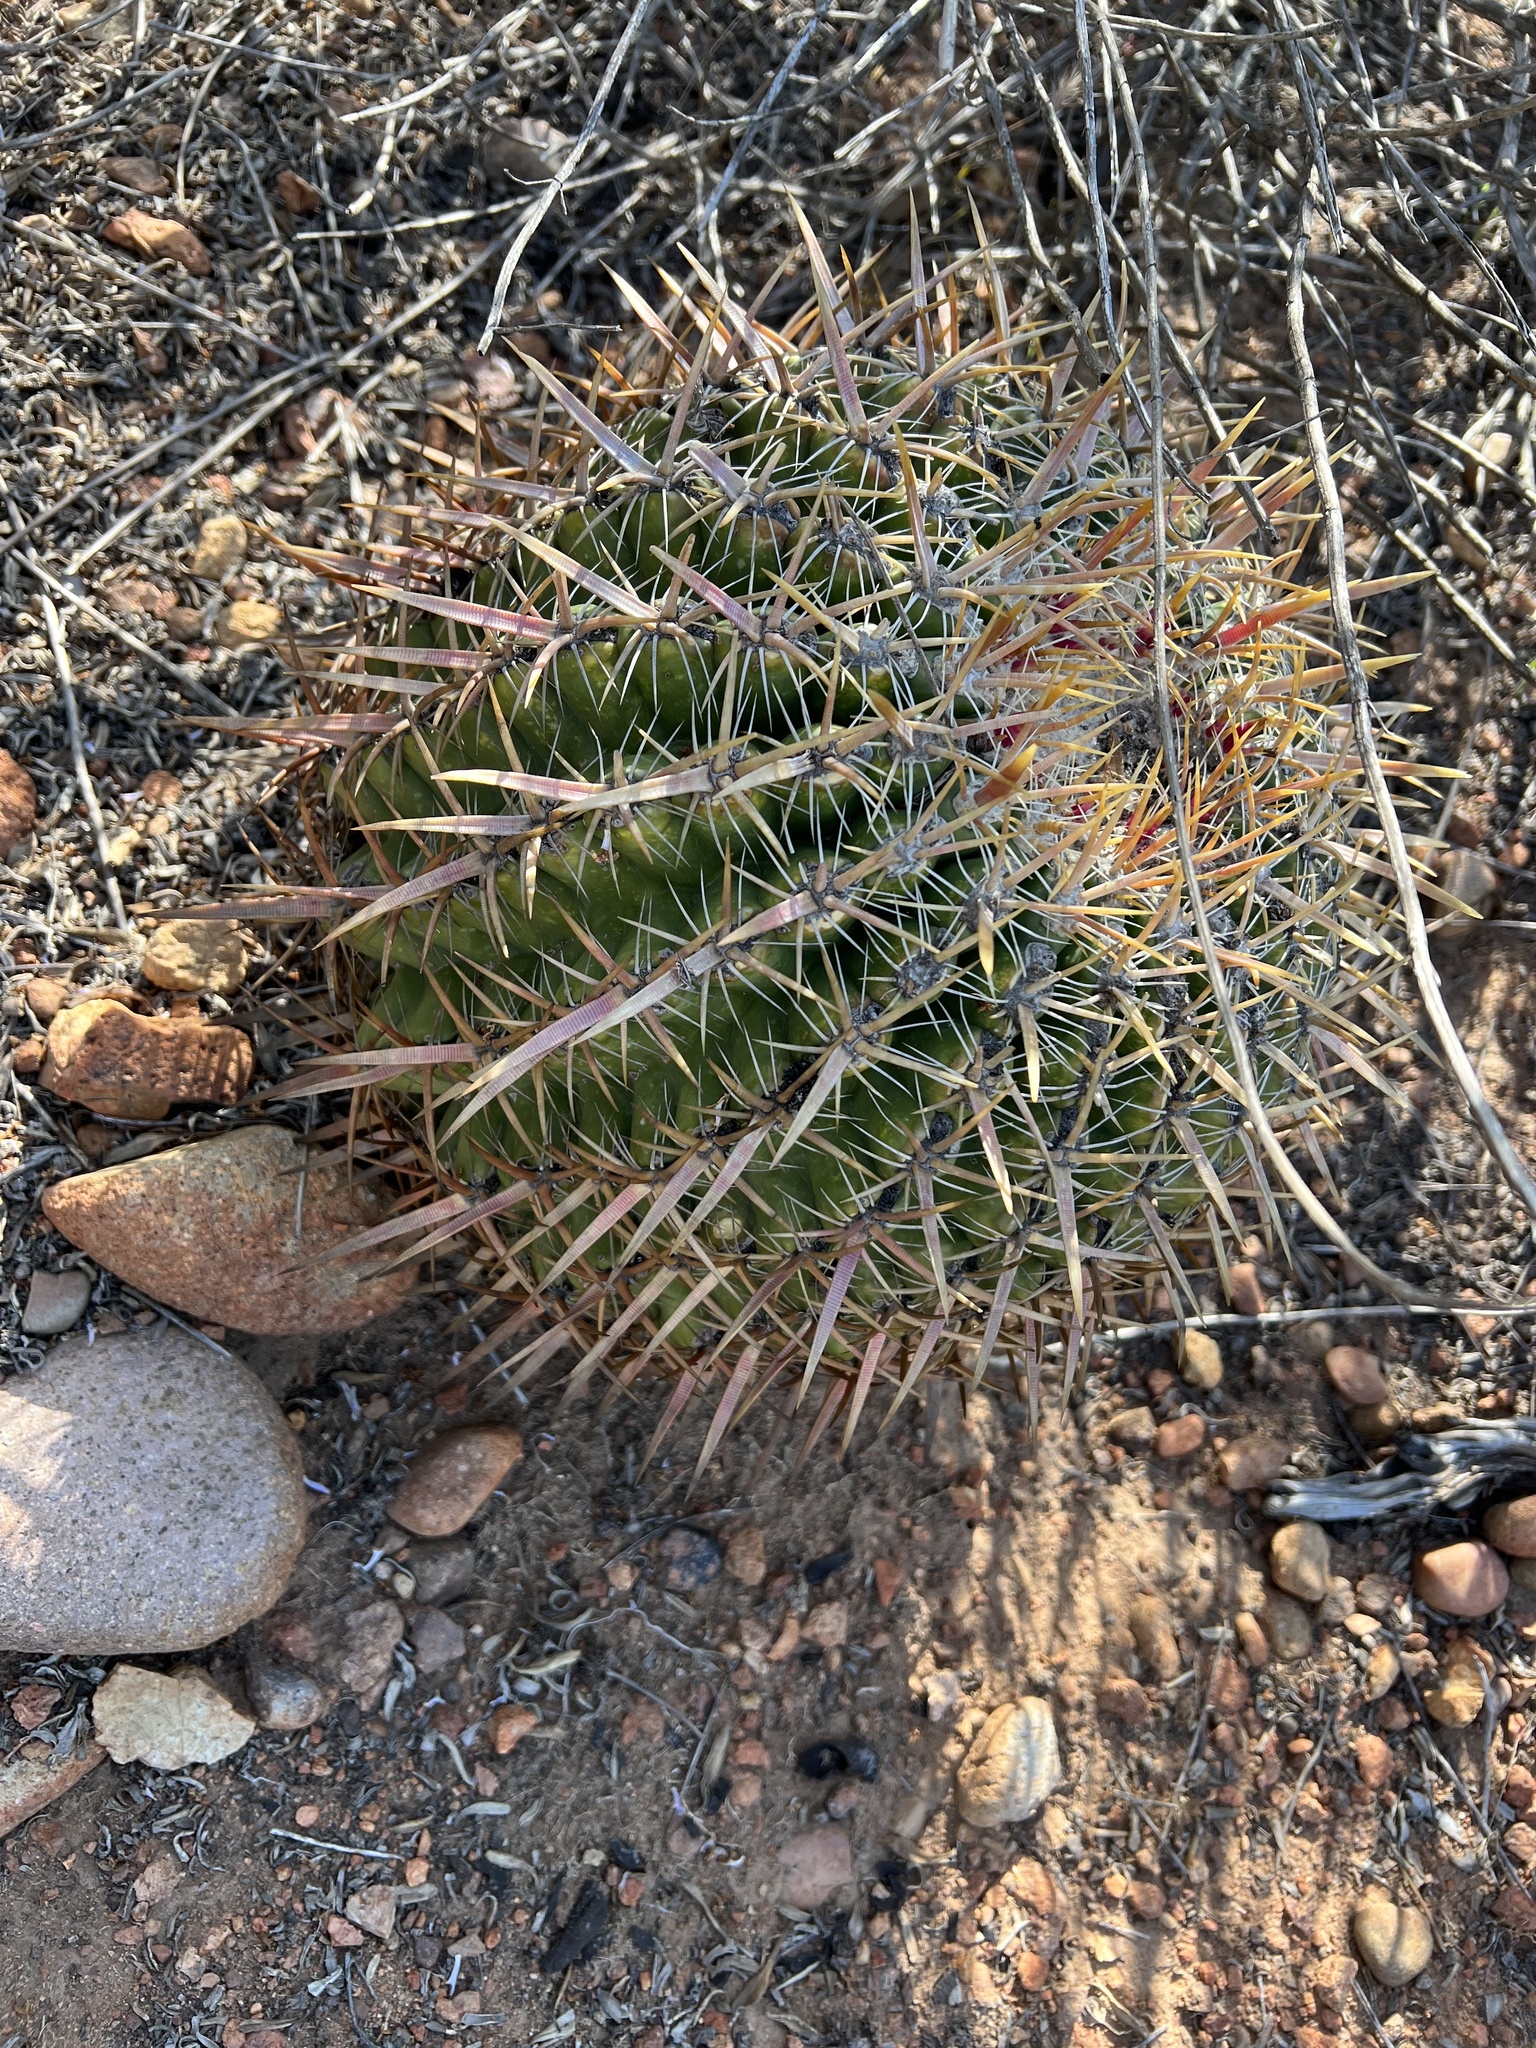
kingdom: Plantae
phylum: Tracheophyta
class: Magnoliopsida
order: Caryophyllales
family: Cactaceae
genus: Ferocactus
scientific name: Ferocactus viridescens
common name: San diego barrel cactus
